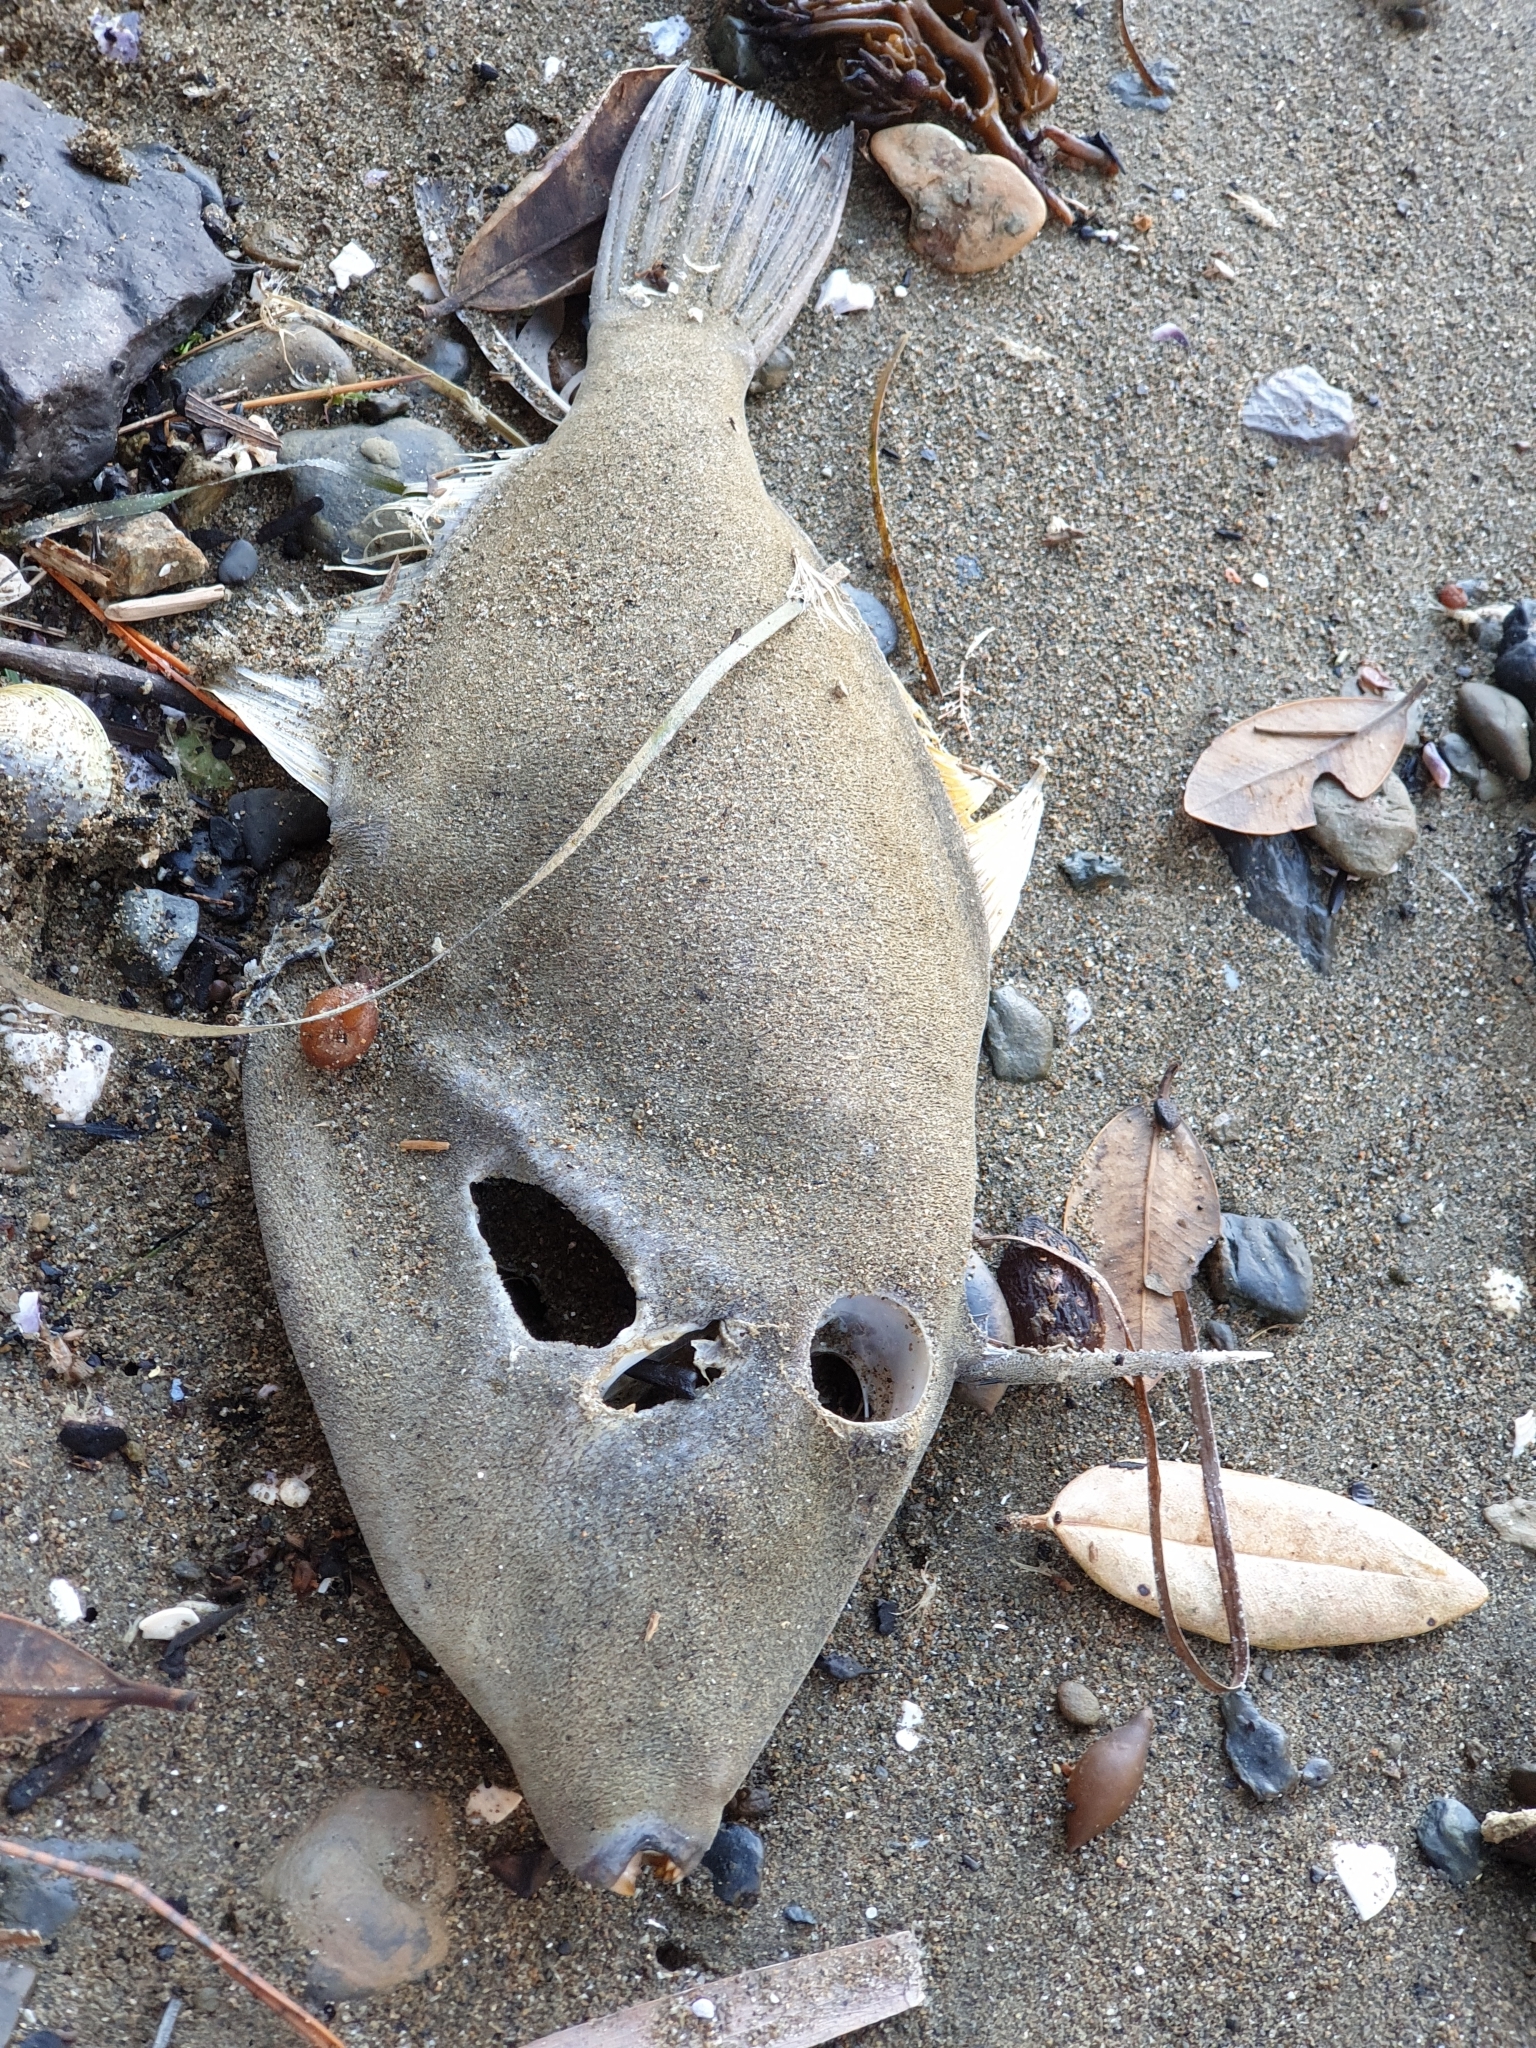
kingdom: Animalia
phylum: Chordata
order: Tetraodontiformes
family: Monacanthidae
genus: Meuschenia
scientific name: Meuschenia scaber
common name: Cosmopolitan leatherjacket
